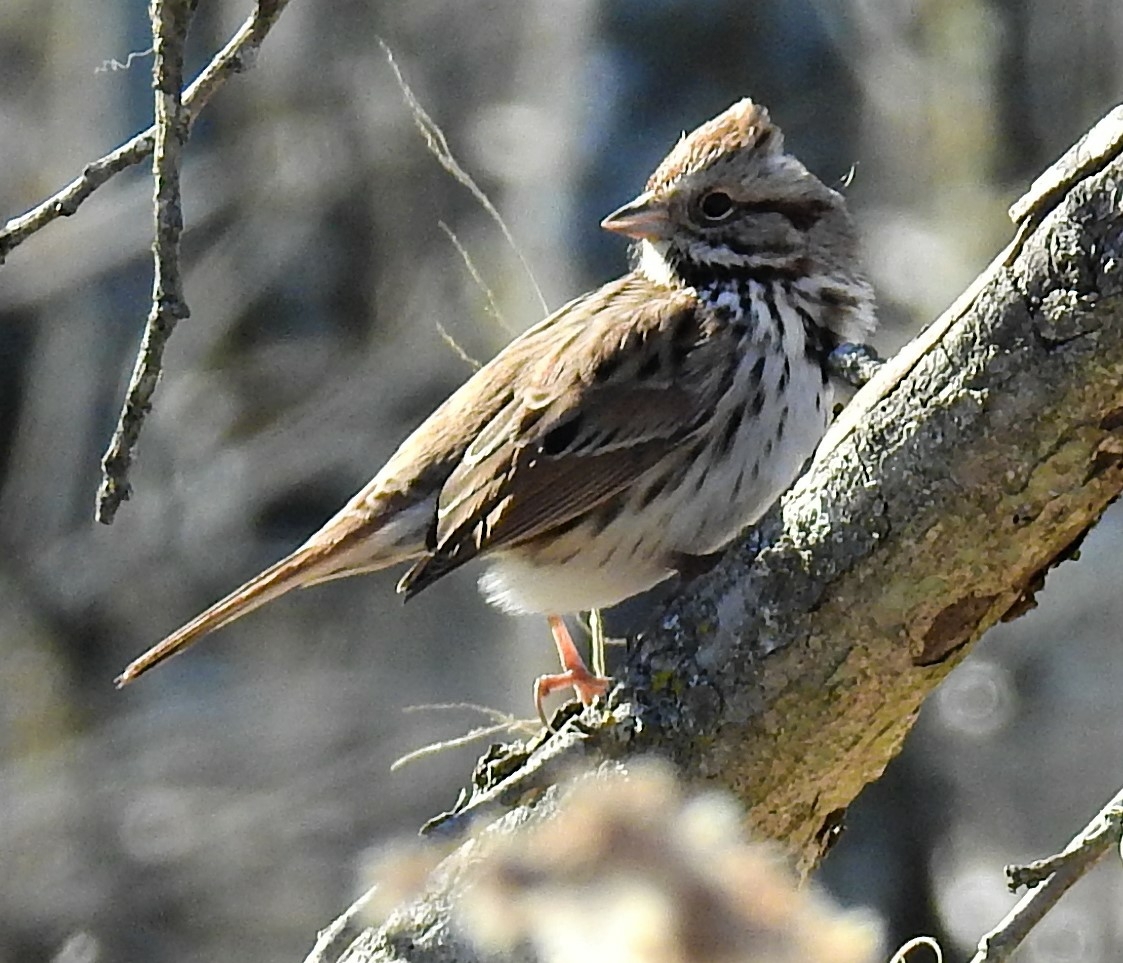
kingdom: Animalia
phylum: Chordata
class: Aves
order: Passeriformes
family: Passerellidae
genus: Melospiza
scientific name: Melospiza melodia
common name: Song sparrow
